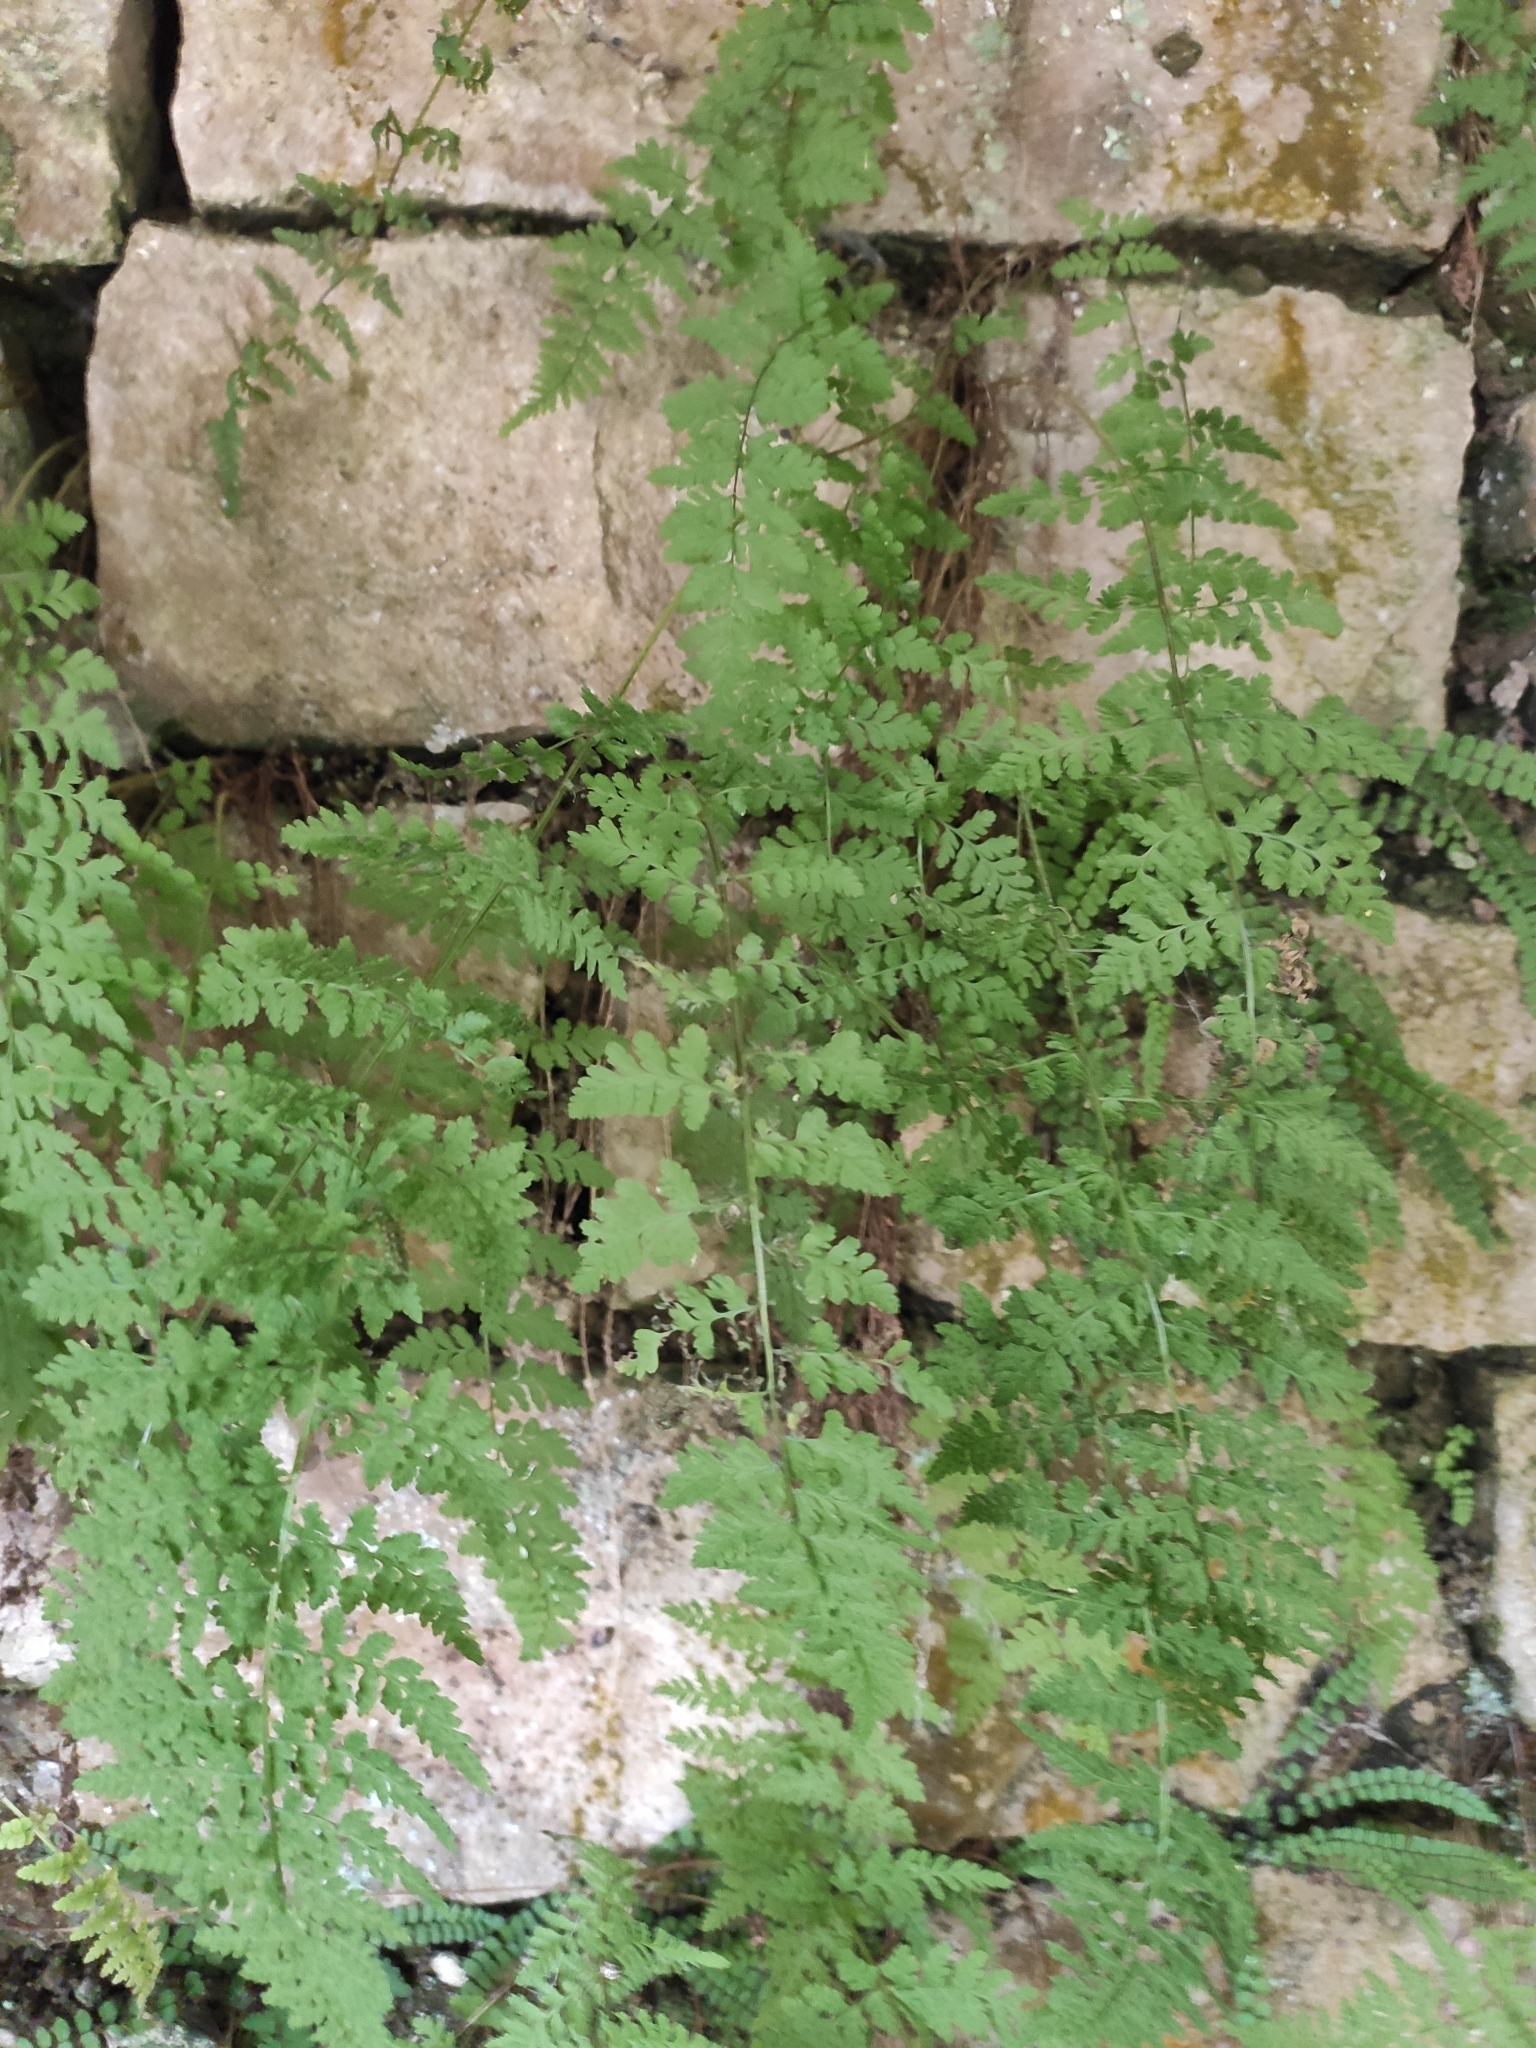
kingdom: Plantae
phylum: Tracheophyta
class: Polypodiopsida
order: Polypodiales
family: Cystopteridaceae
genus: Cystopteris
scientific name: Cystopteris fragilis
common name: Brittle bladder fern
